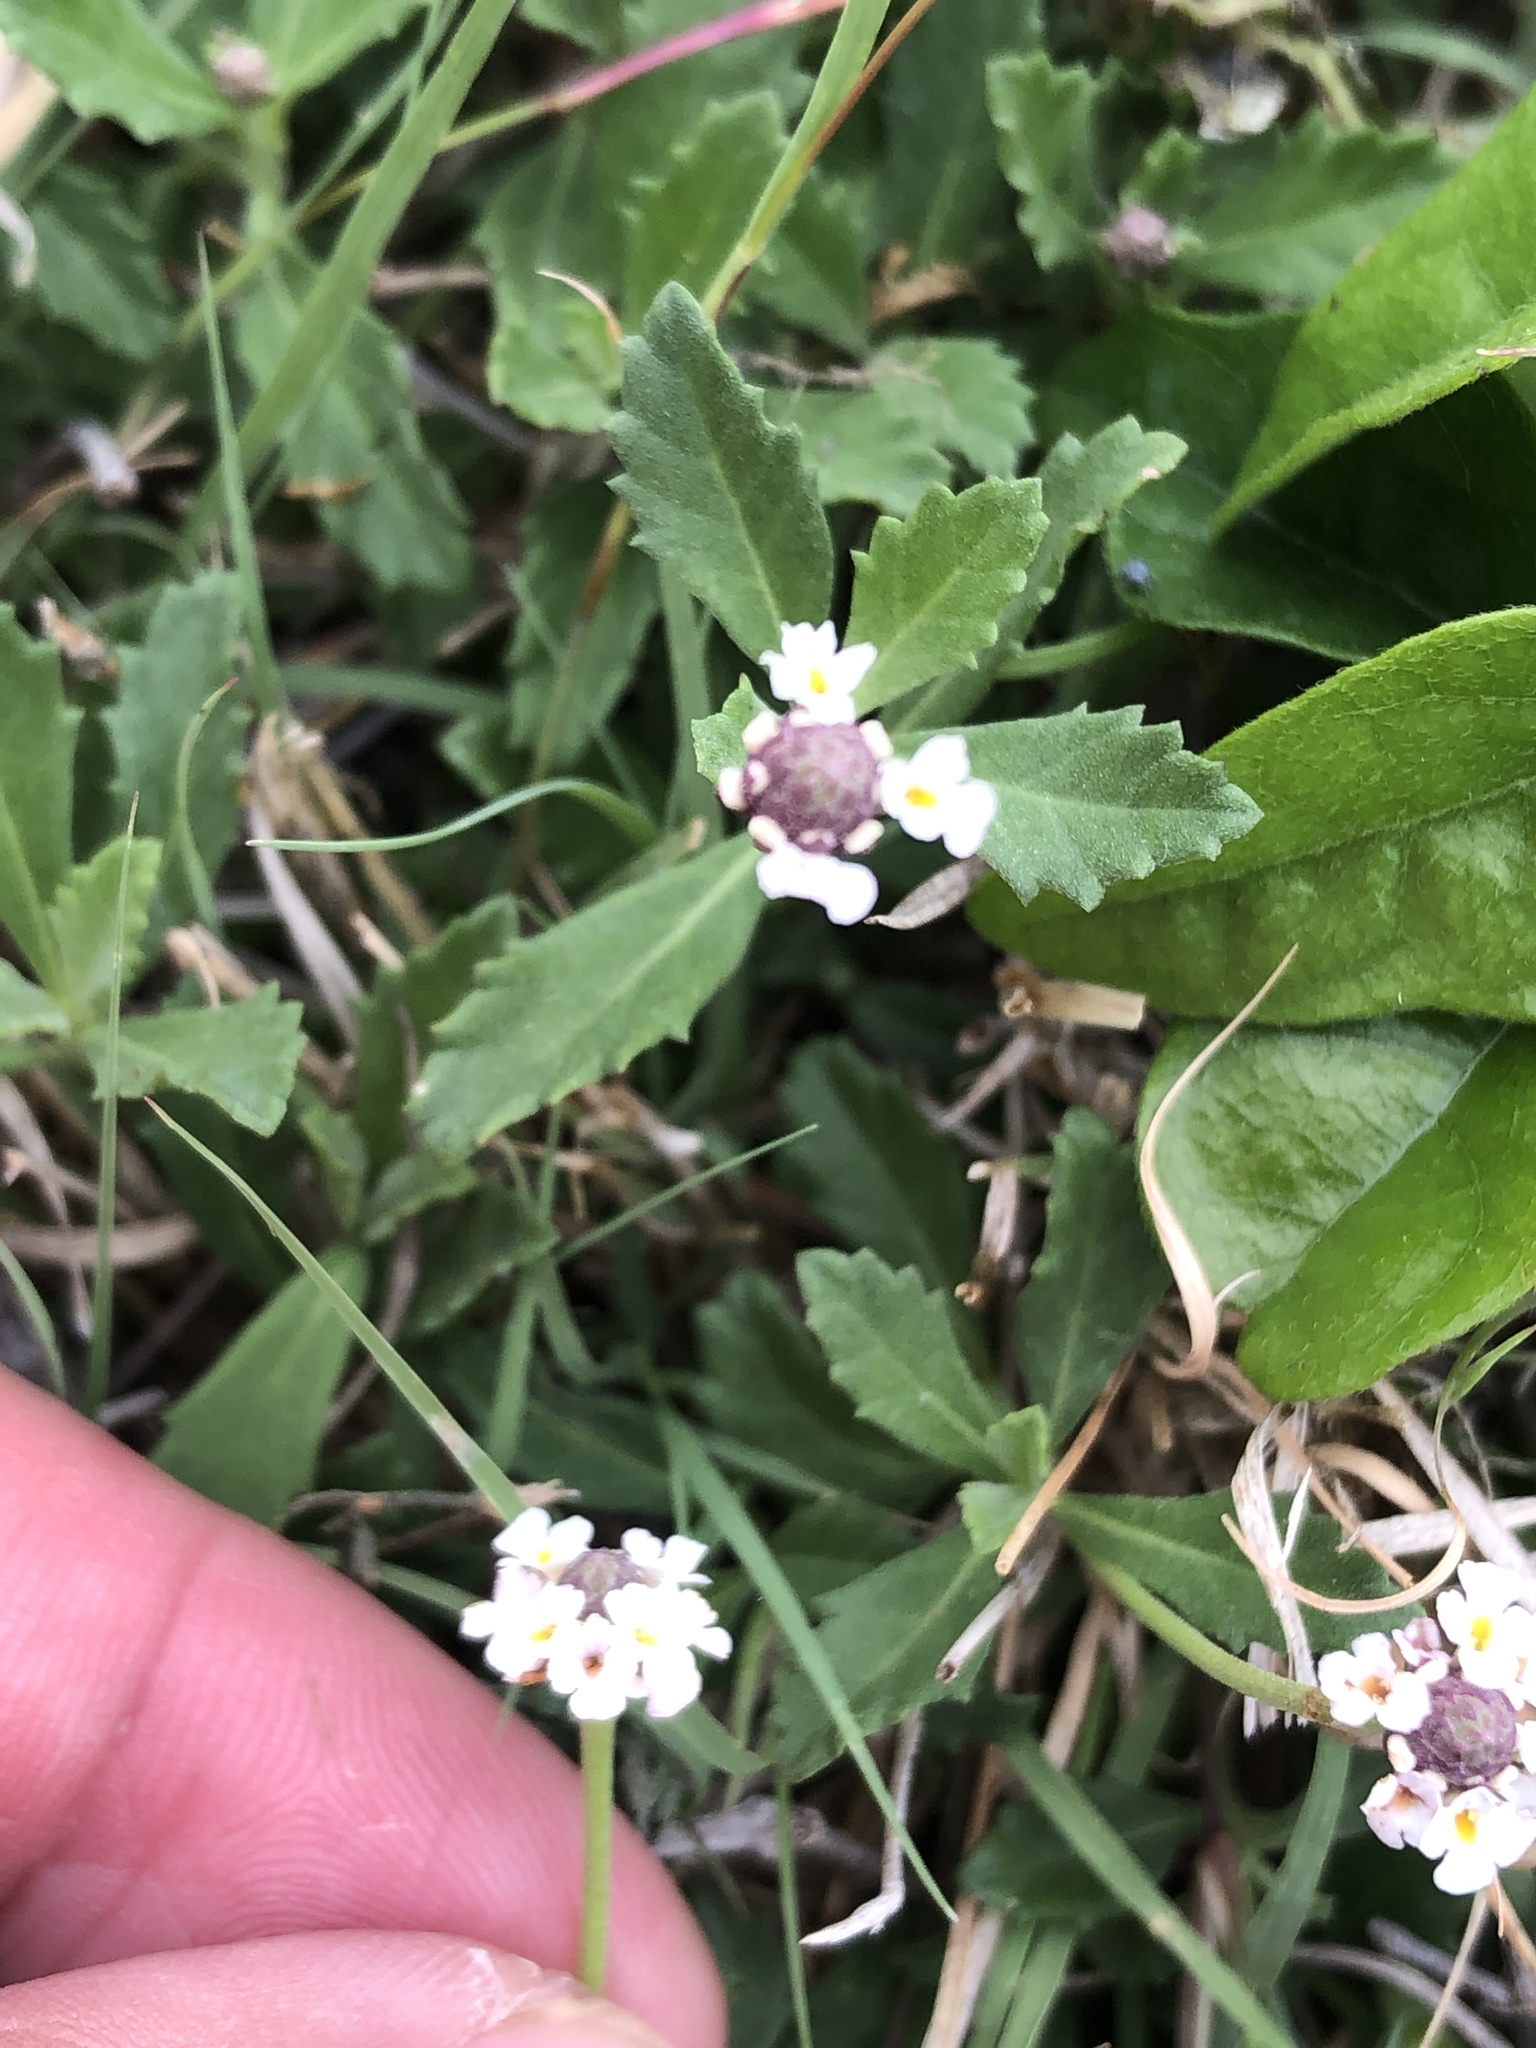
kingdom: Plantae
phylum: Tracheophyta
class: Magnoliopsida
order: Lamiales
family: Verbenaceae
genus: Phyla
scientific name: Phyla nodiflora
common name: Frogfruit
